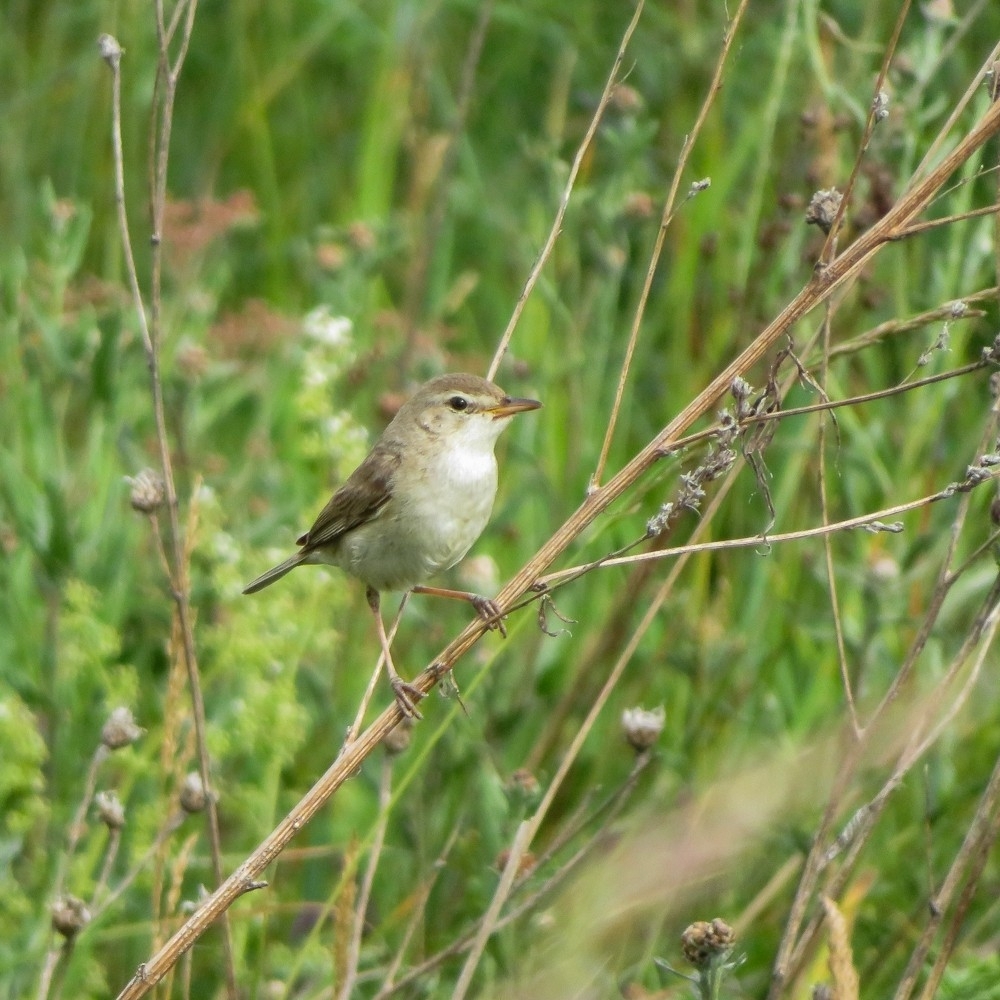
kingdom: Animalia
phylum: Chordata
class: Aves
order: Passeriformes
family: Acrocephalidae
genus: Iduna
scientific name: Iduna caligata
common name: Booted warbler
